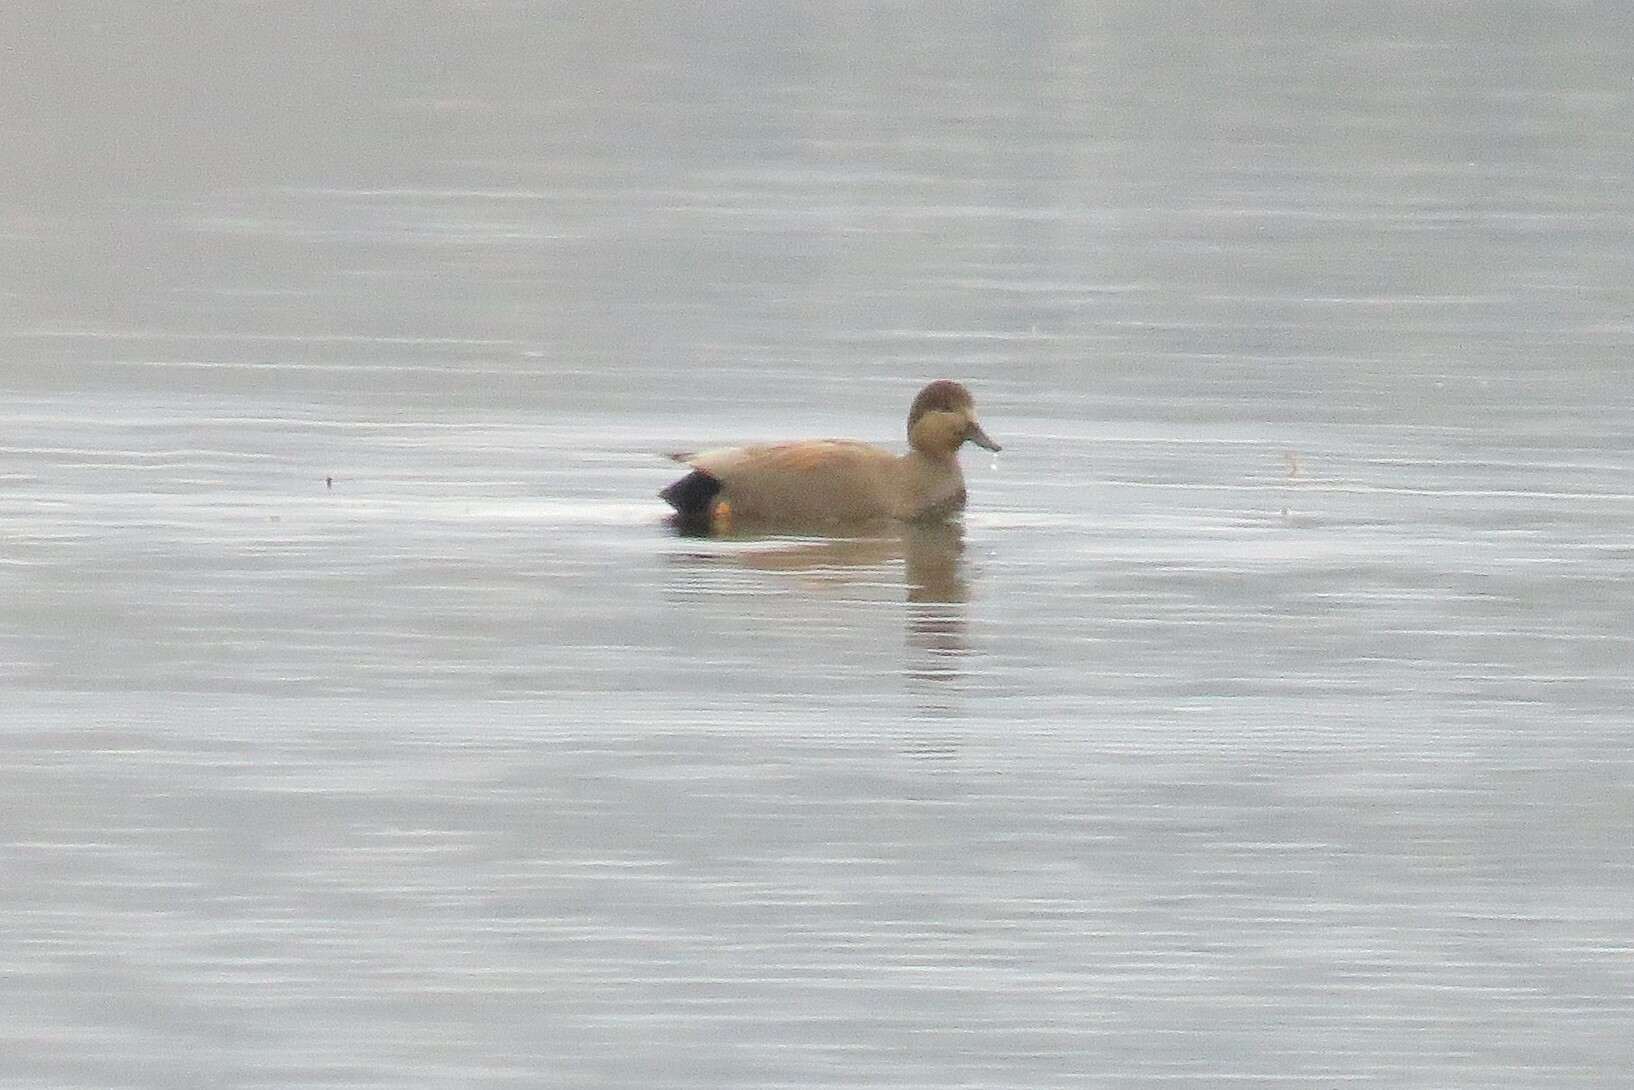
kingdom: Animalia
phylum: Chordata
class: Aves
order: Anseriformes
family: Anatidae
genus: Mareca
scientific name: Mareca strepera
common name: Gadwall
